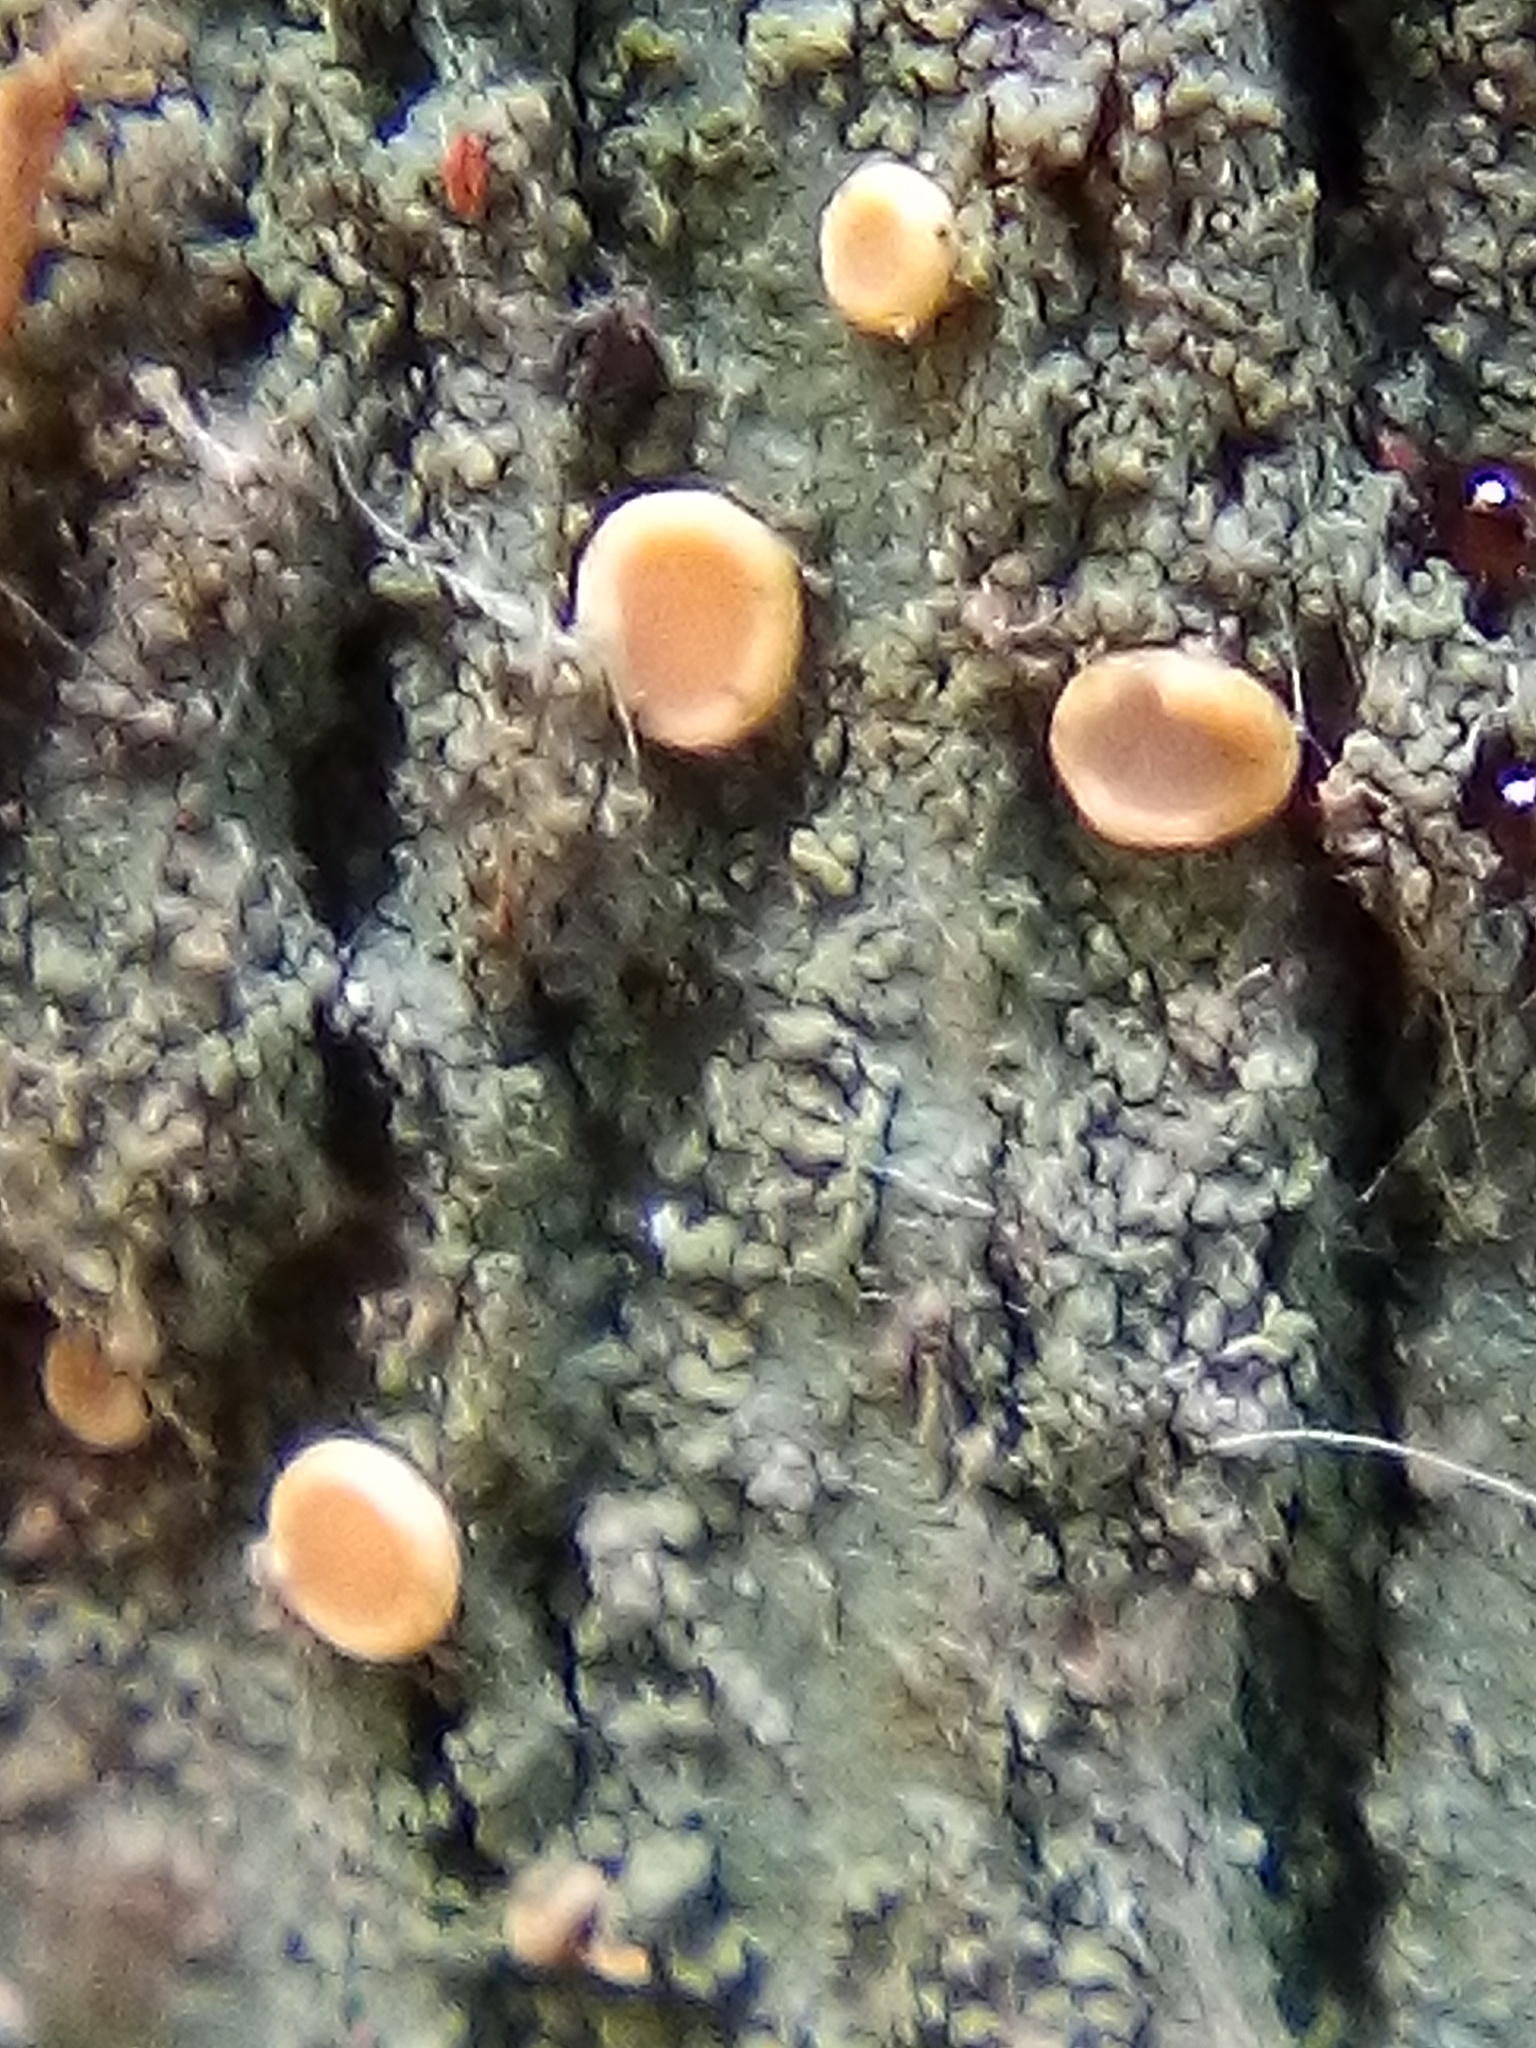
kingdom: Fungi
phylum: Ascomycota
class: Lecanoromycetes
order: Ostropales
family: Coenogoniaceae
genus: Coenogonium
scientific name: Coenogonium luteum
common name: Orange dimple lichen
